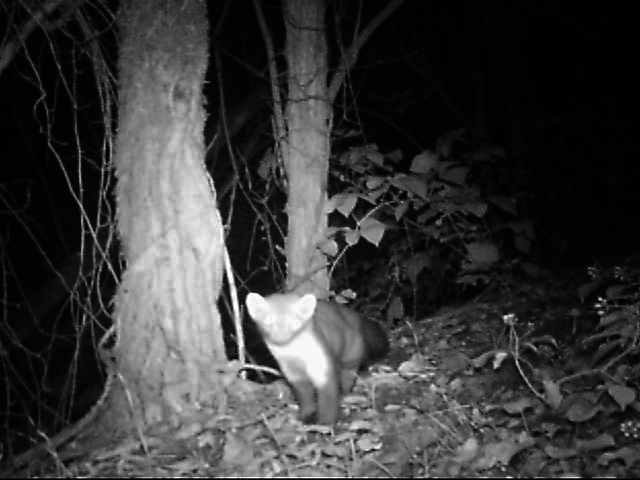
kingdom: Animalia
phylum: Chordata
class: Mammalia
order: Carnivora
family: Mustelidae
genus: Martes
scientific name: Martes foina
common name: Beech marten
